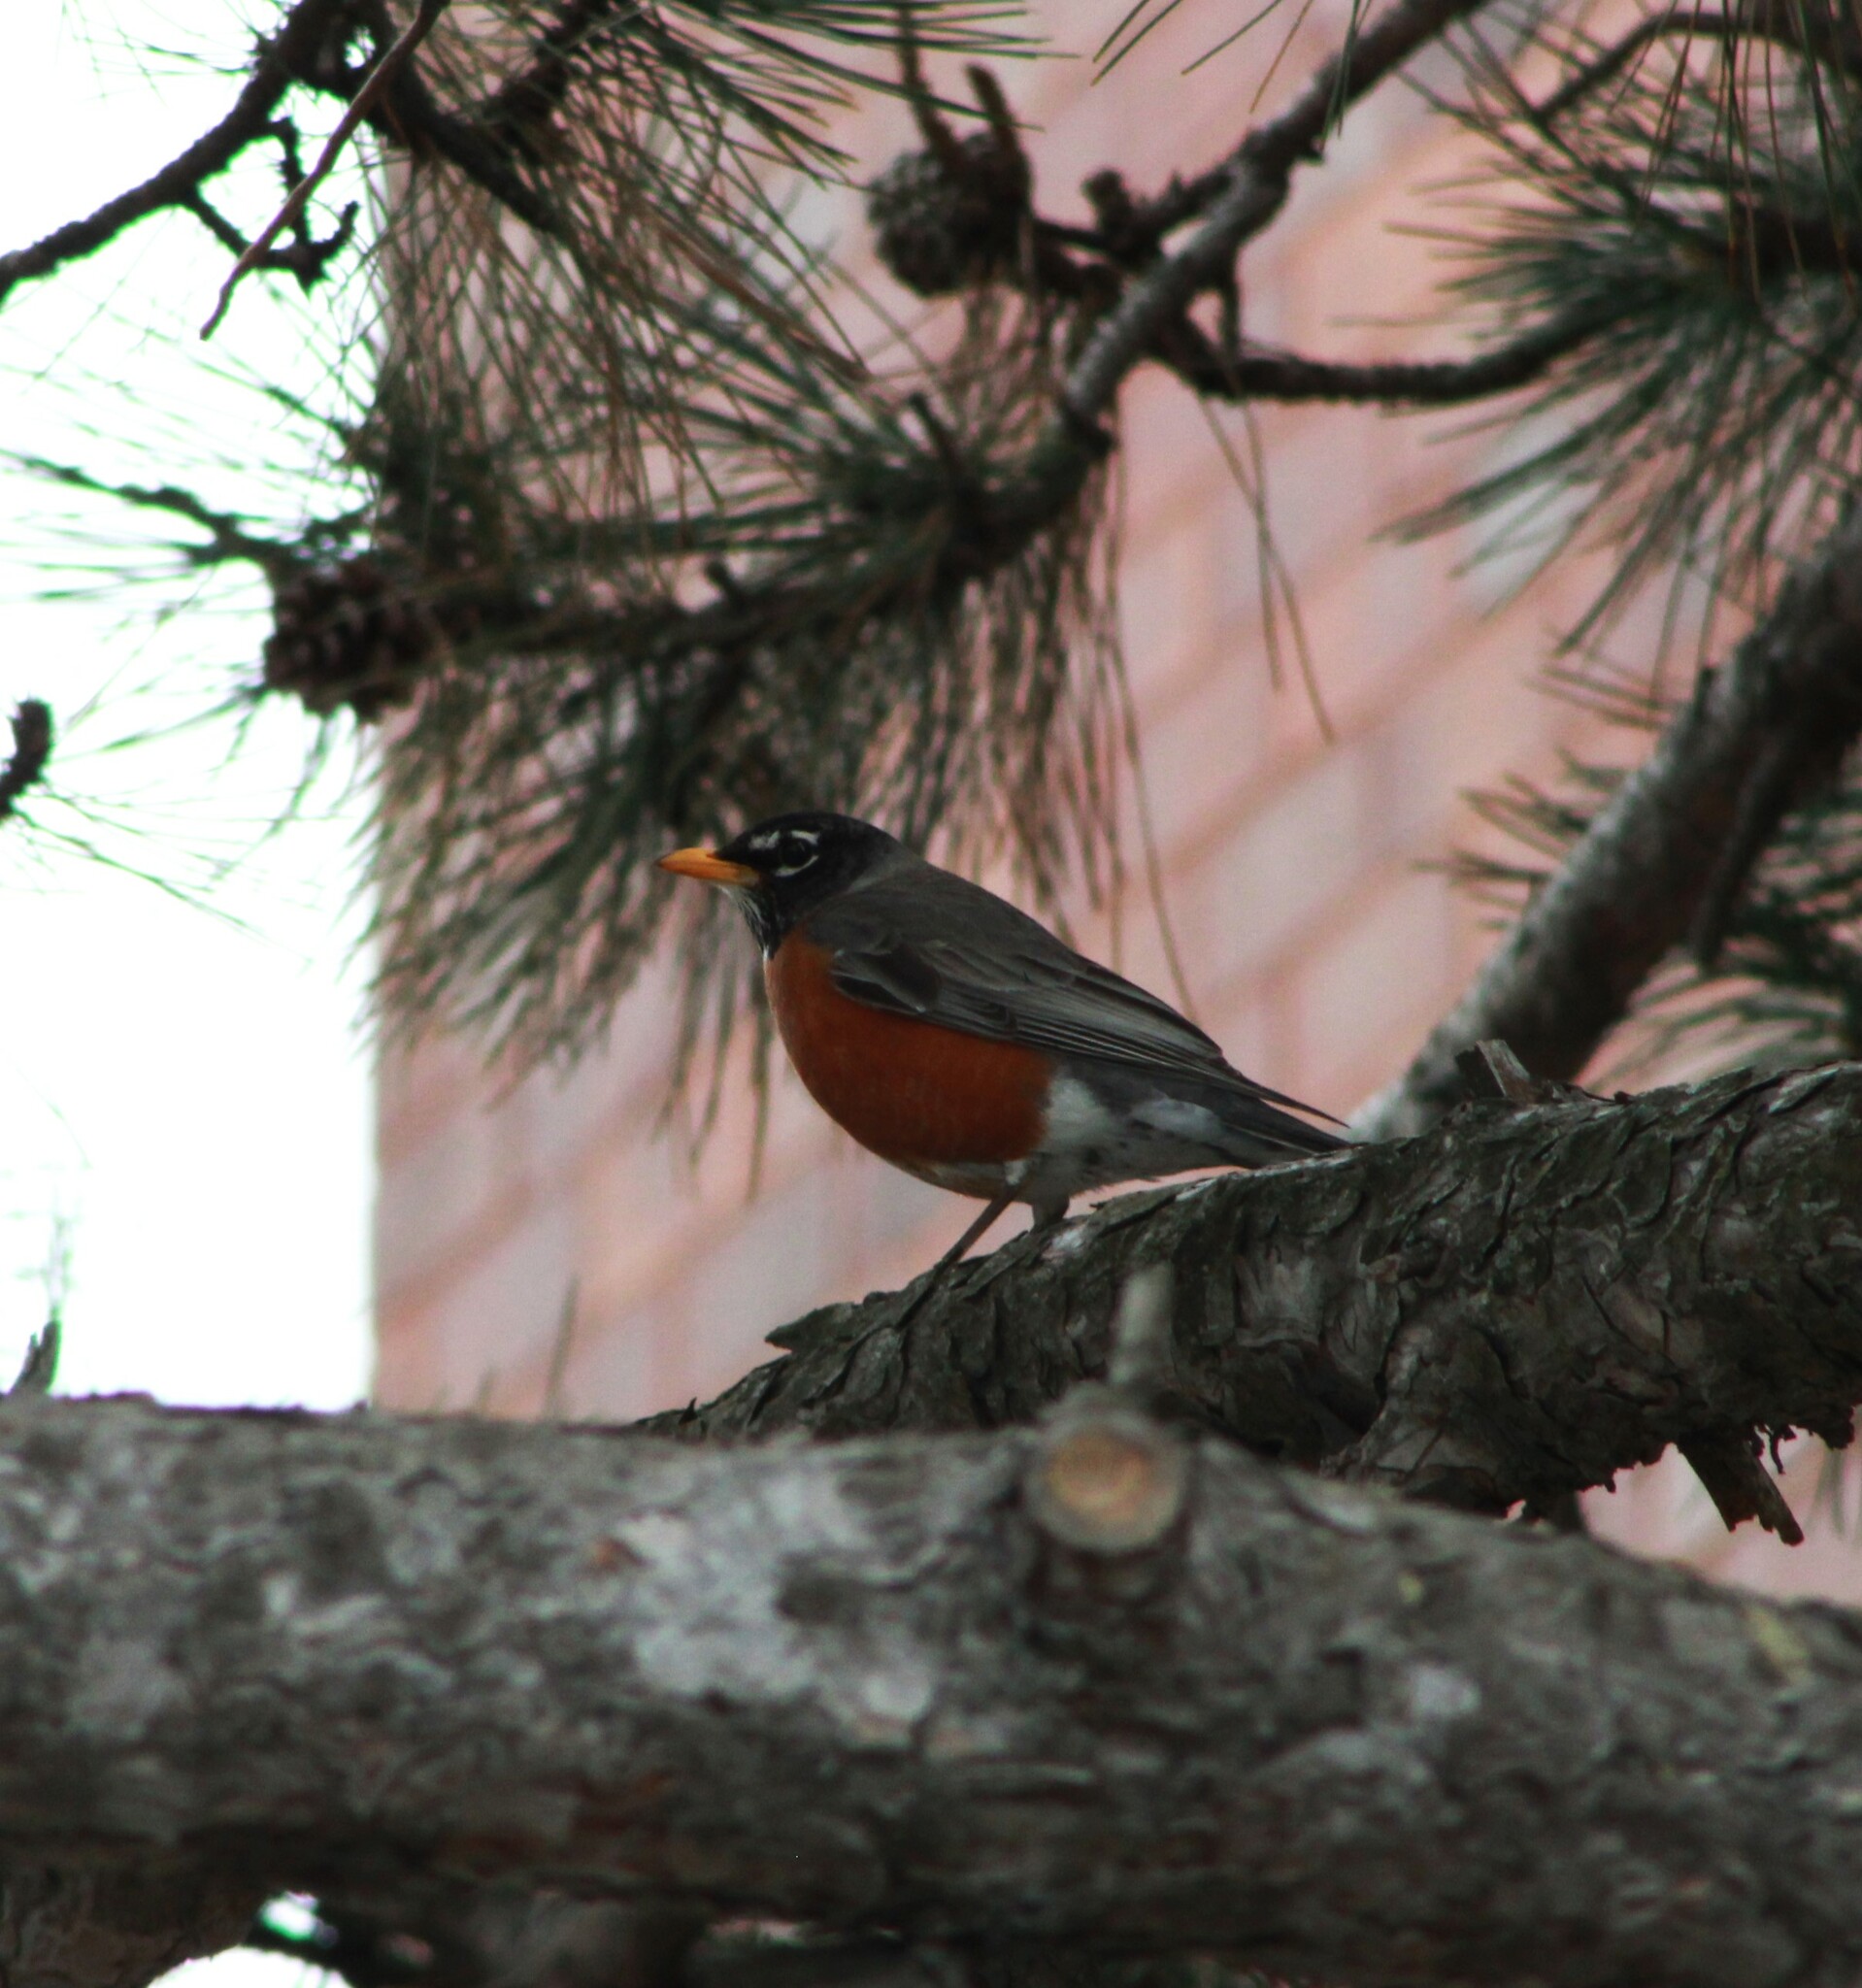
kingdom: Animalia
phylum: Chordata
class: Aves
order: Passeriformes
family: Turdidae
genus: Turdus
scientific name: Turdus migratorius
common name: American robin
